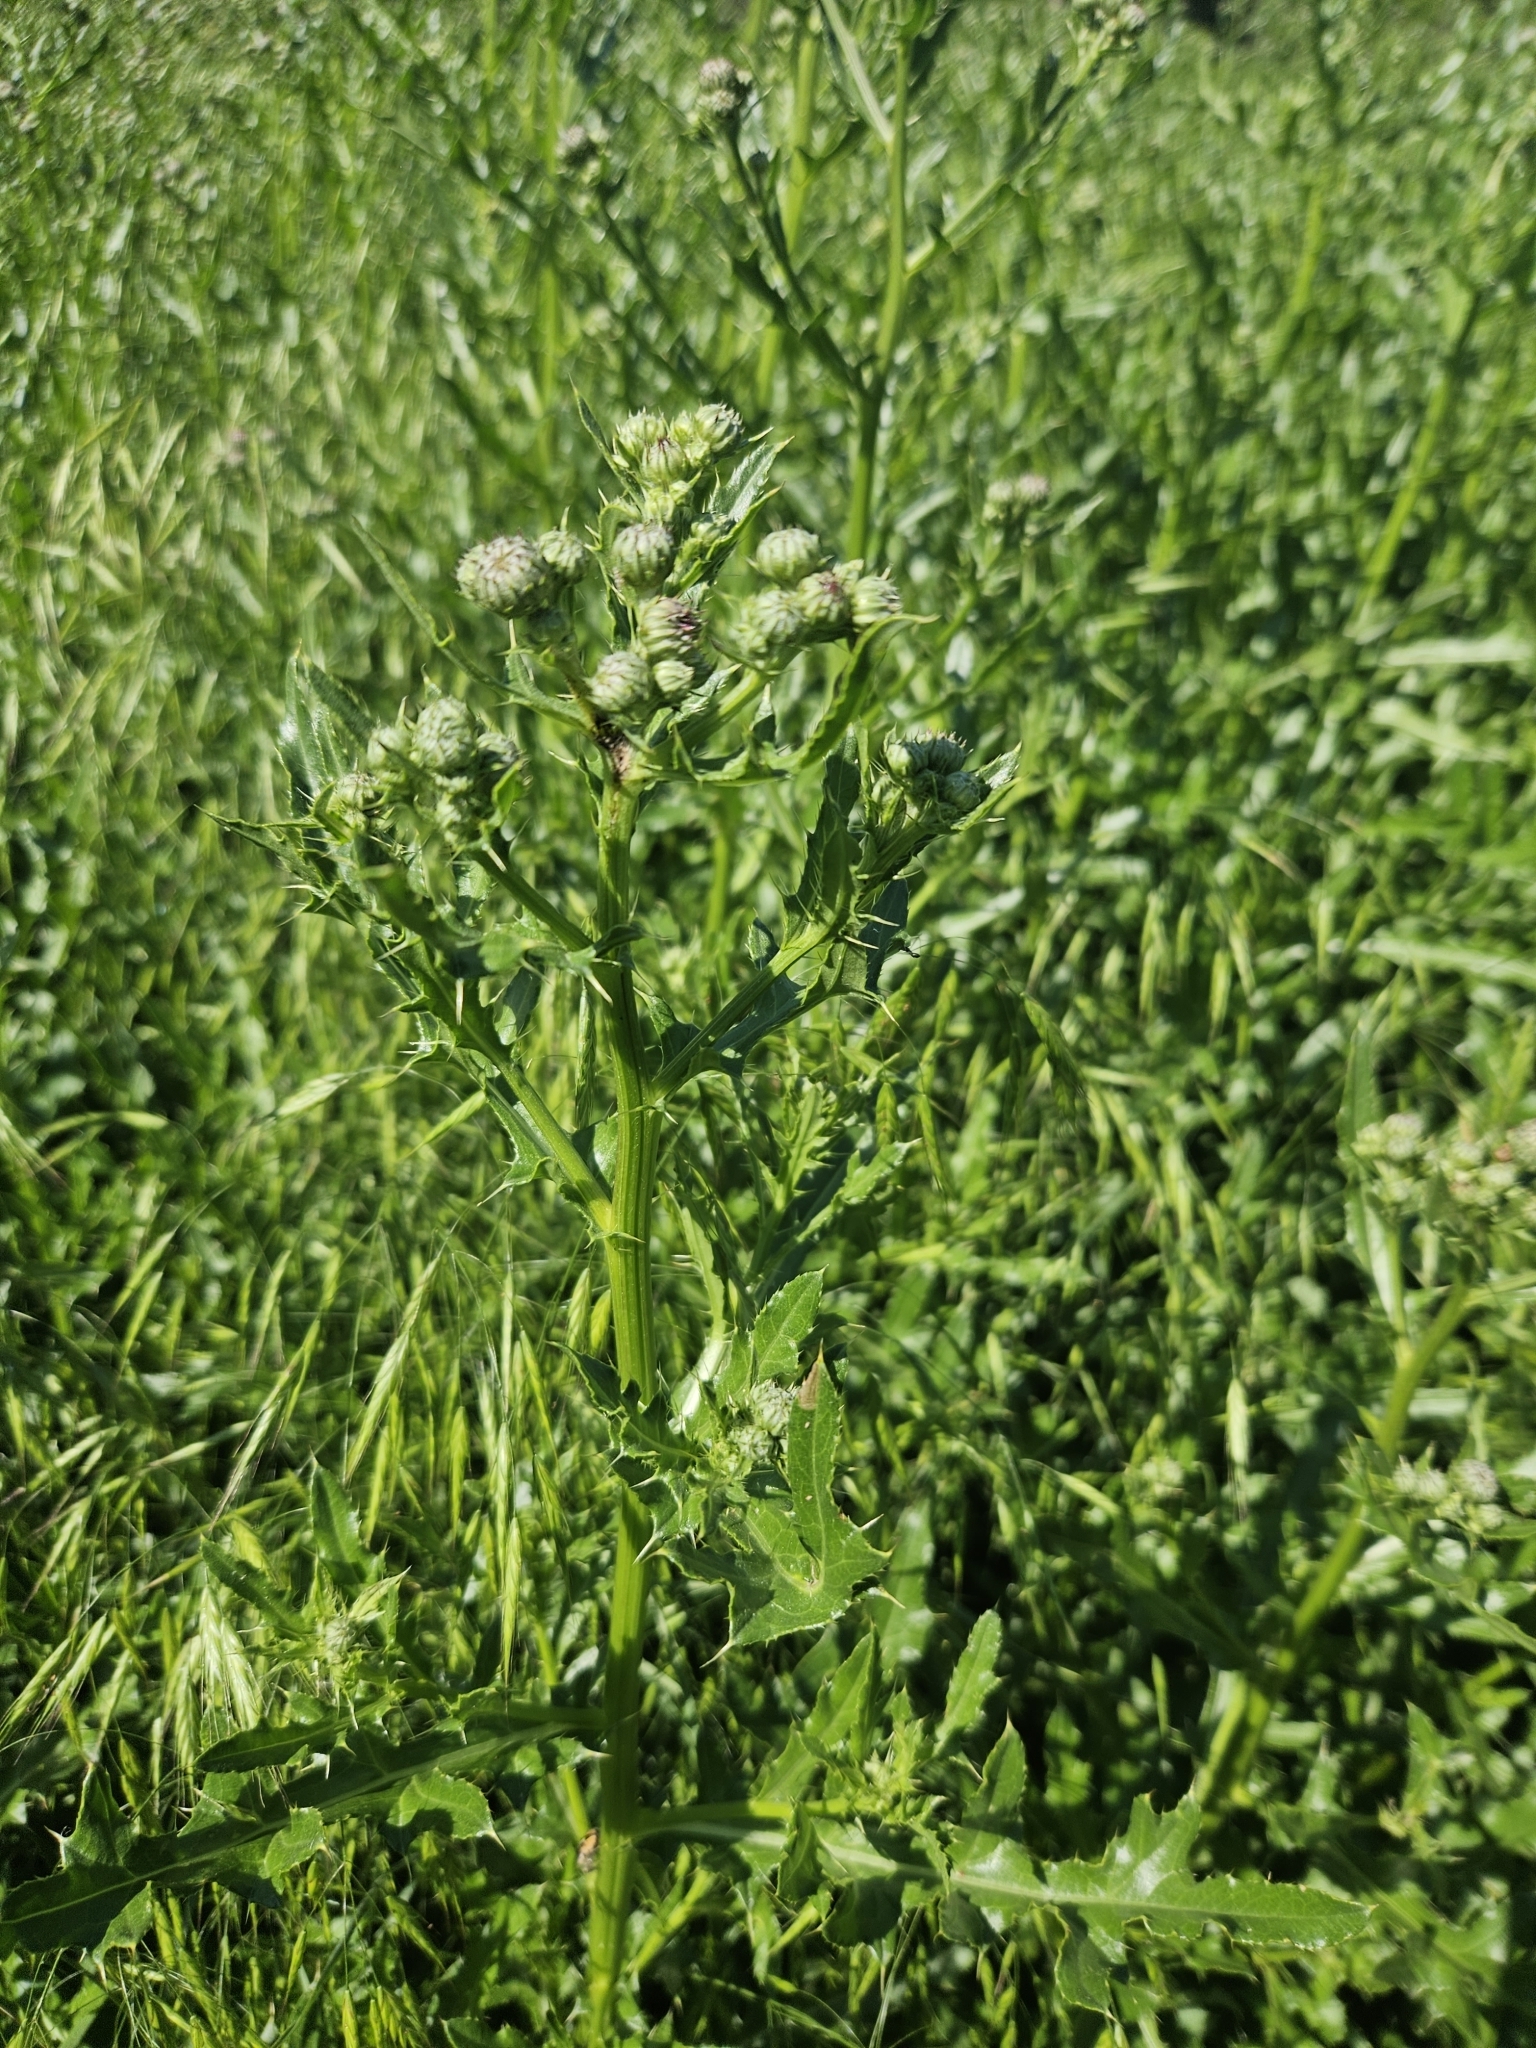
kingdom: Plantae
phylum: Tracheophyta
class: Magnoliopsida
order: Asterales
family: Asteraceae
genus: Cirsium
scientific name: Cirsium arvense
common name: Creeping thistle
